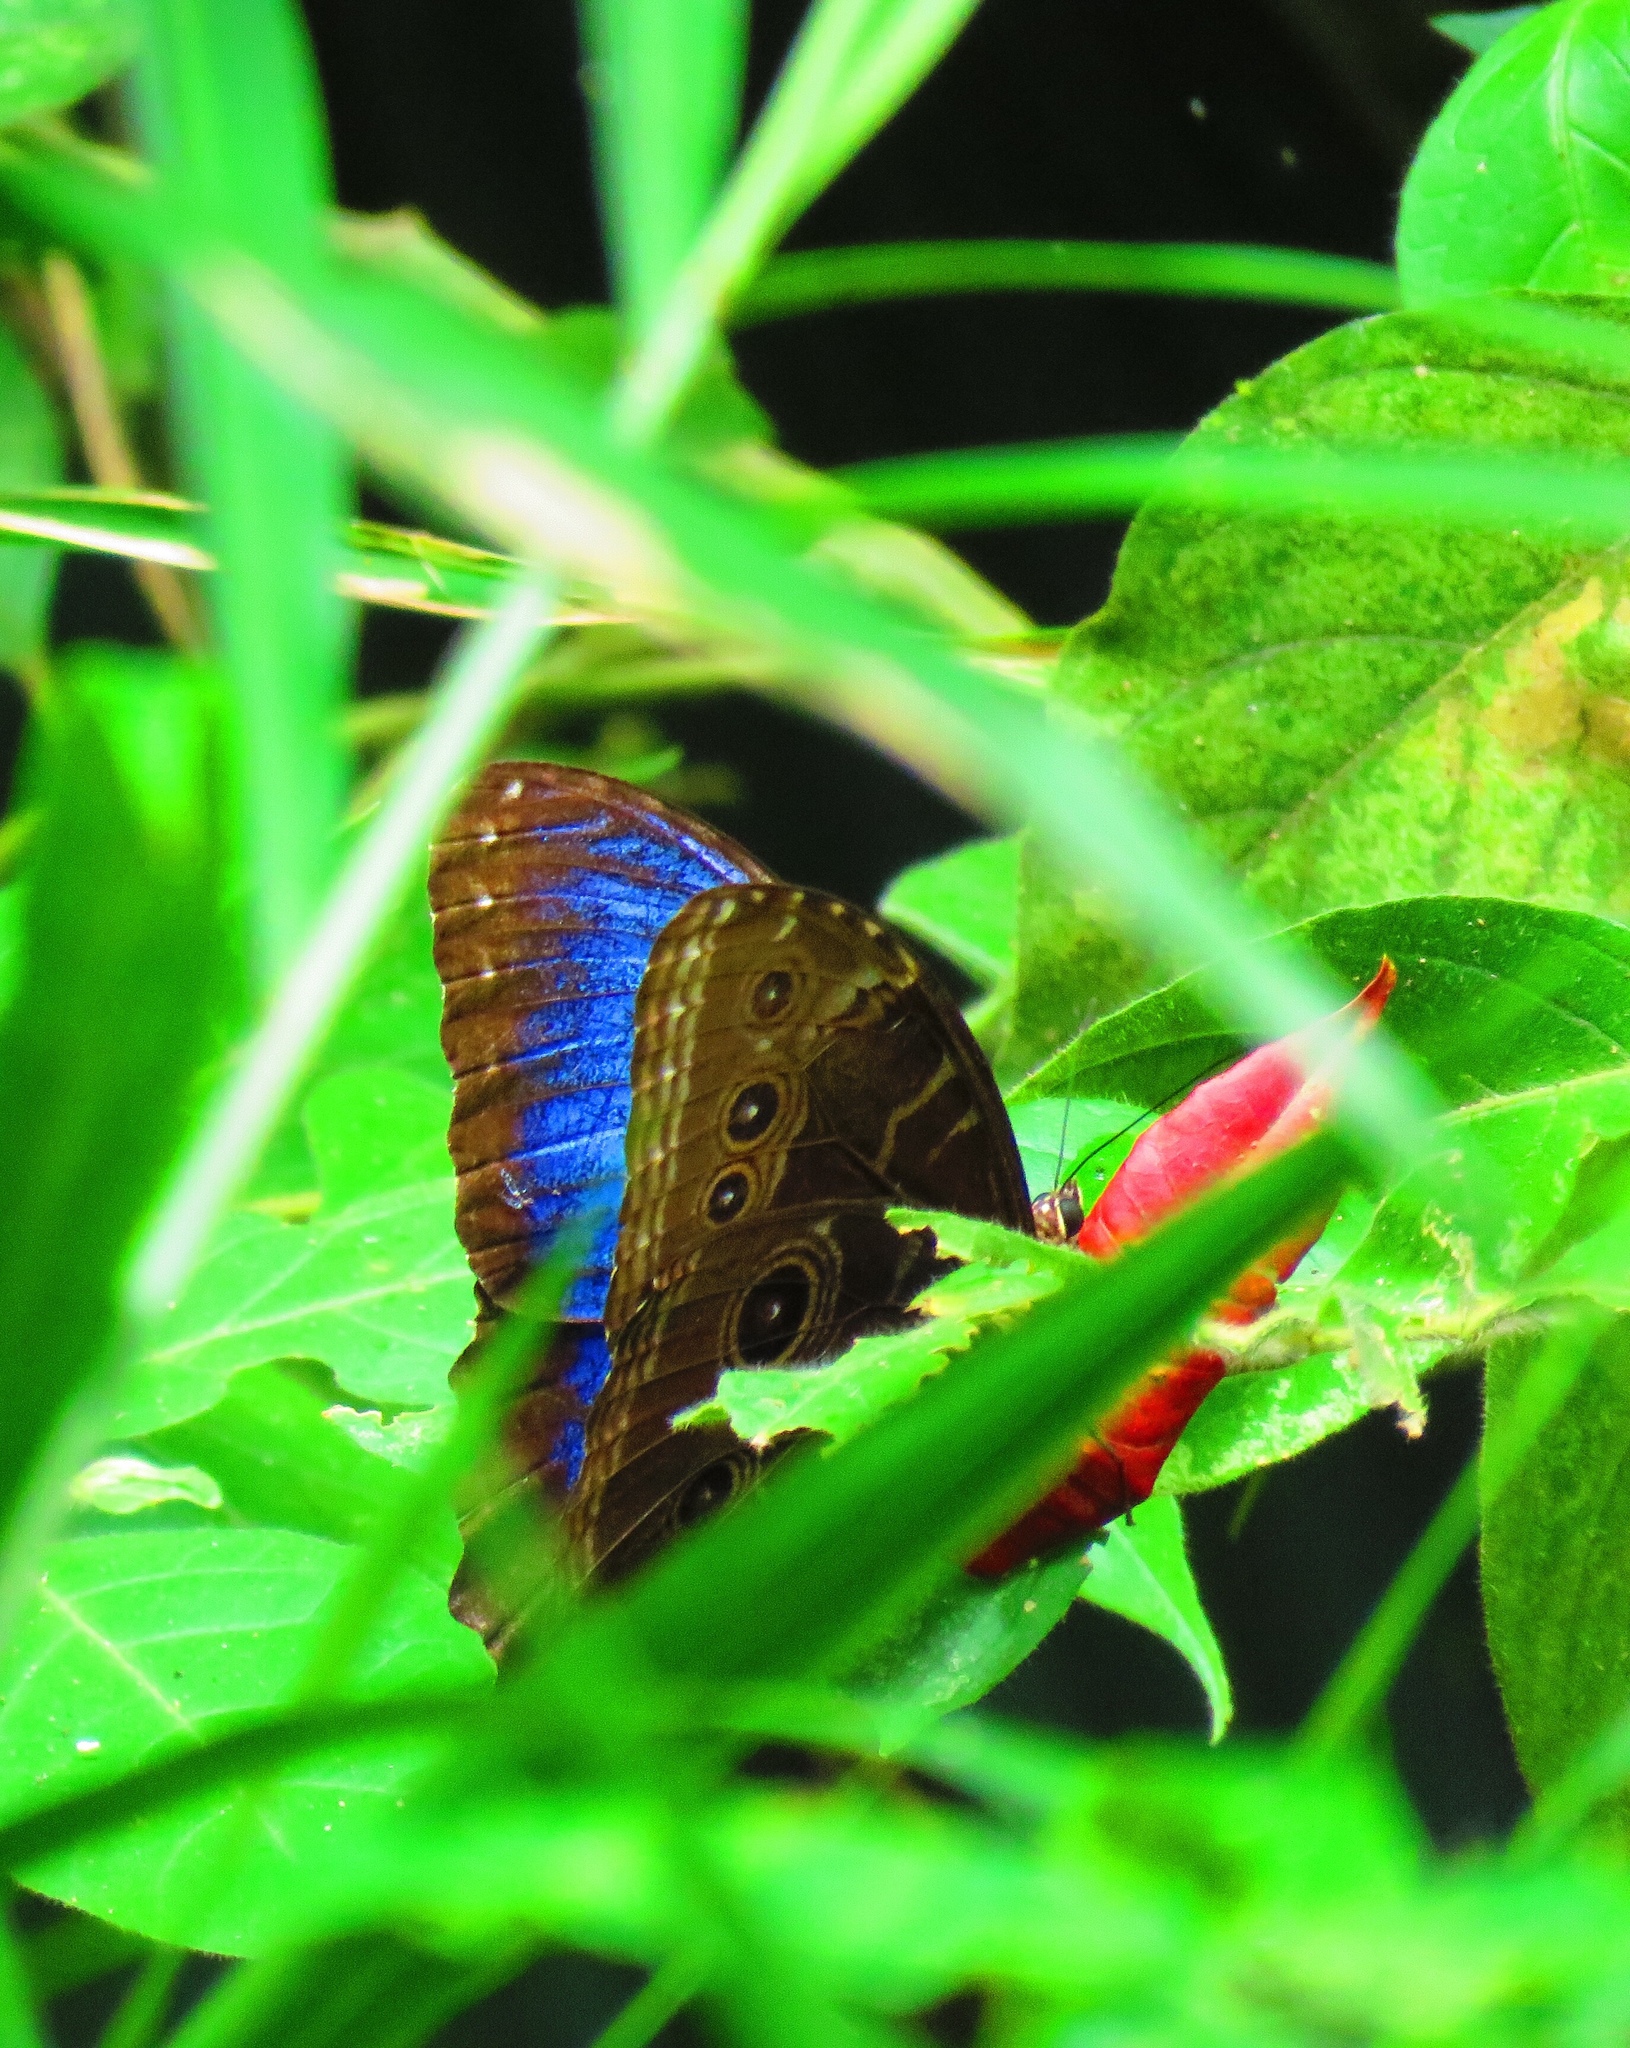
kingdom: Animalia
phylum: Arthropoda
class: Insecta
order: Lepidoptera
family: Nymphalidae
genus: Morpho
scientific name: Morpho helenor
